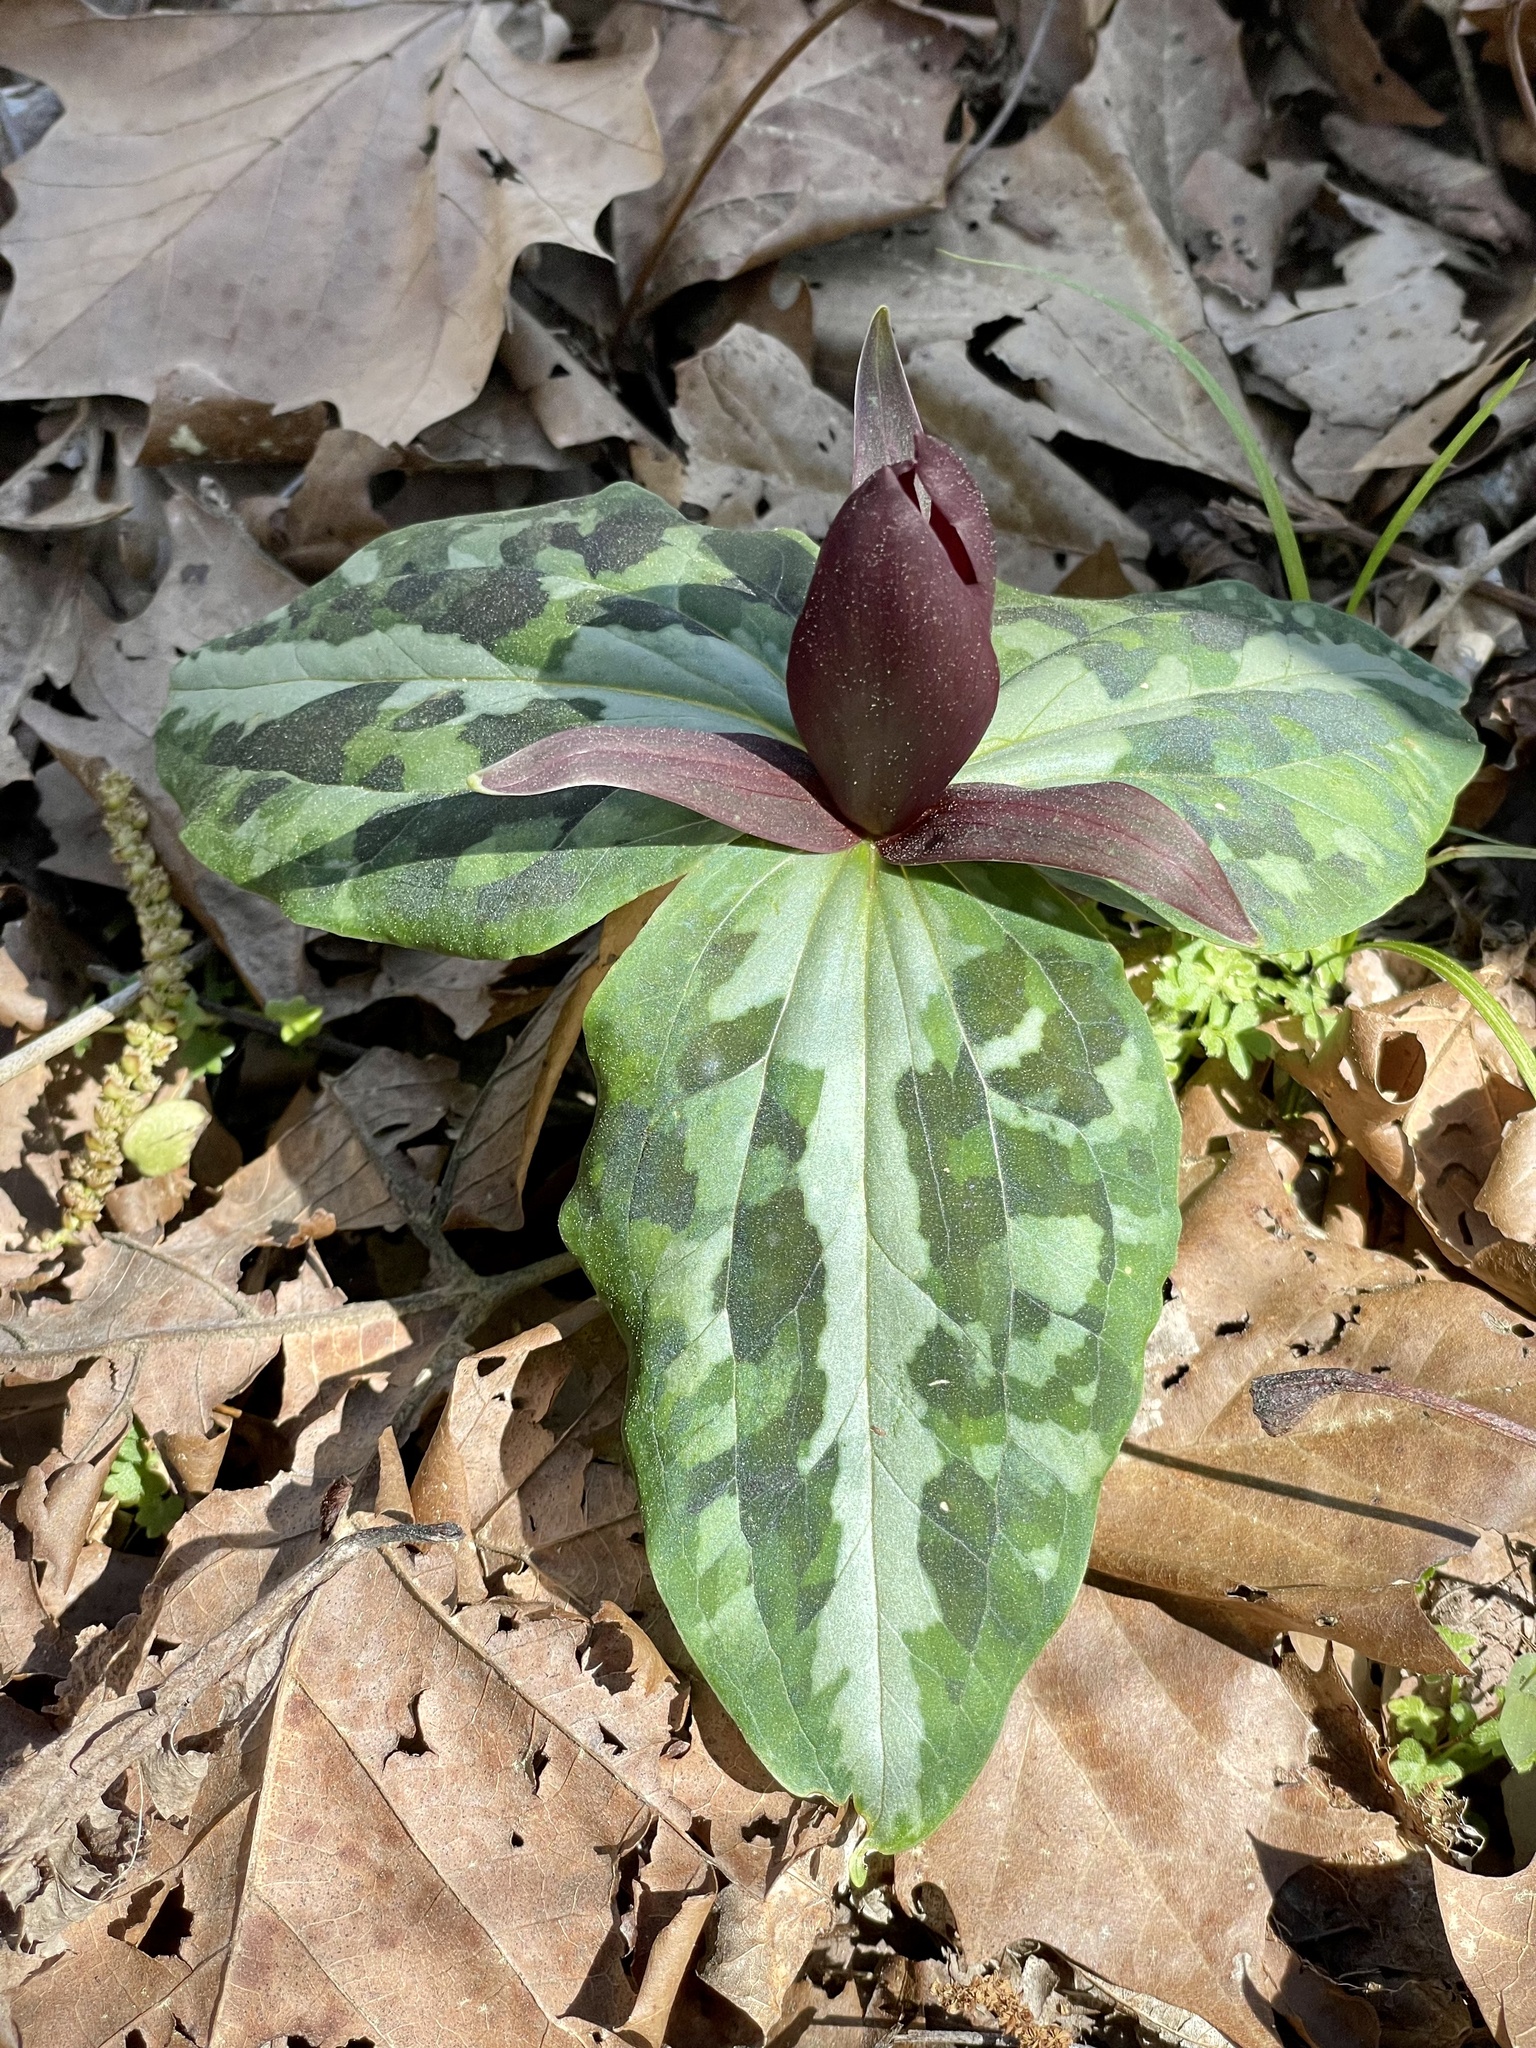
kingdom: Plantae
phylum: Tracheophyta
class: Liliopsida
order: Liliales
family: Melanthiaceae
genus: Trillium
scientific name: Trillium underwoodii
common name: Longbract wakerobin
